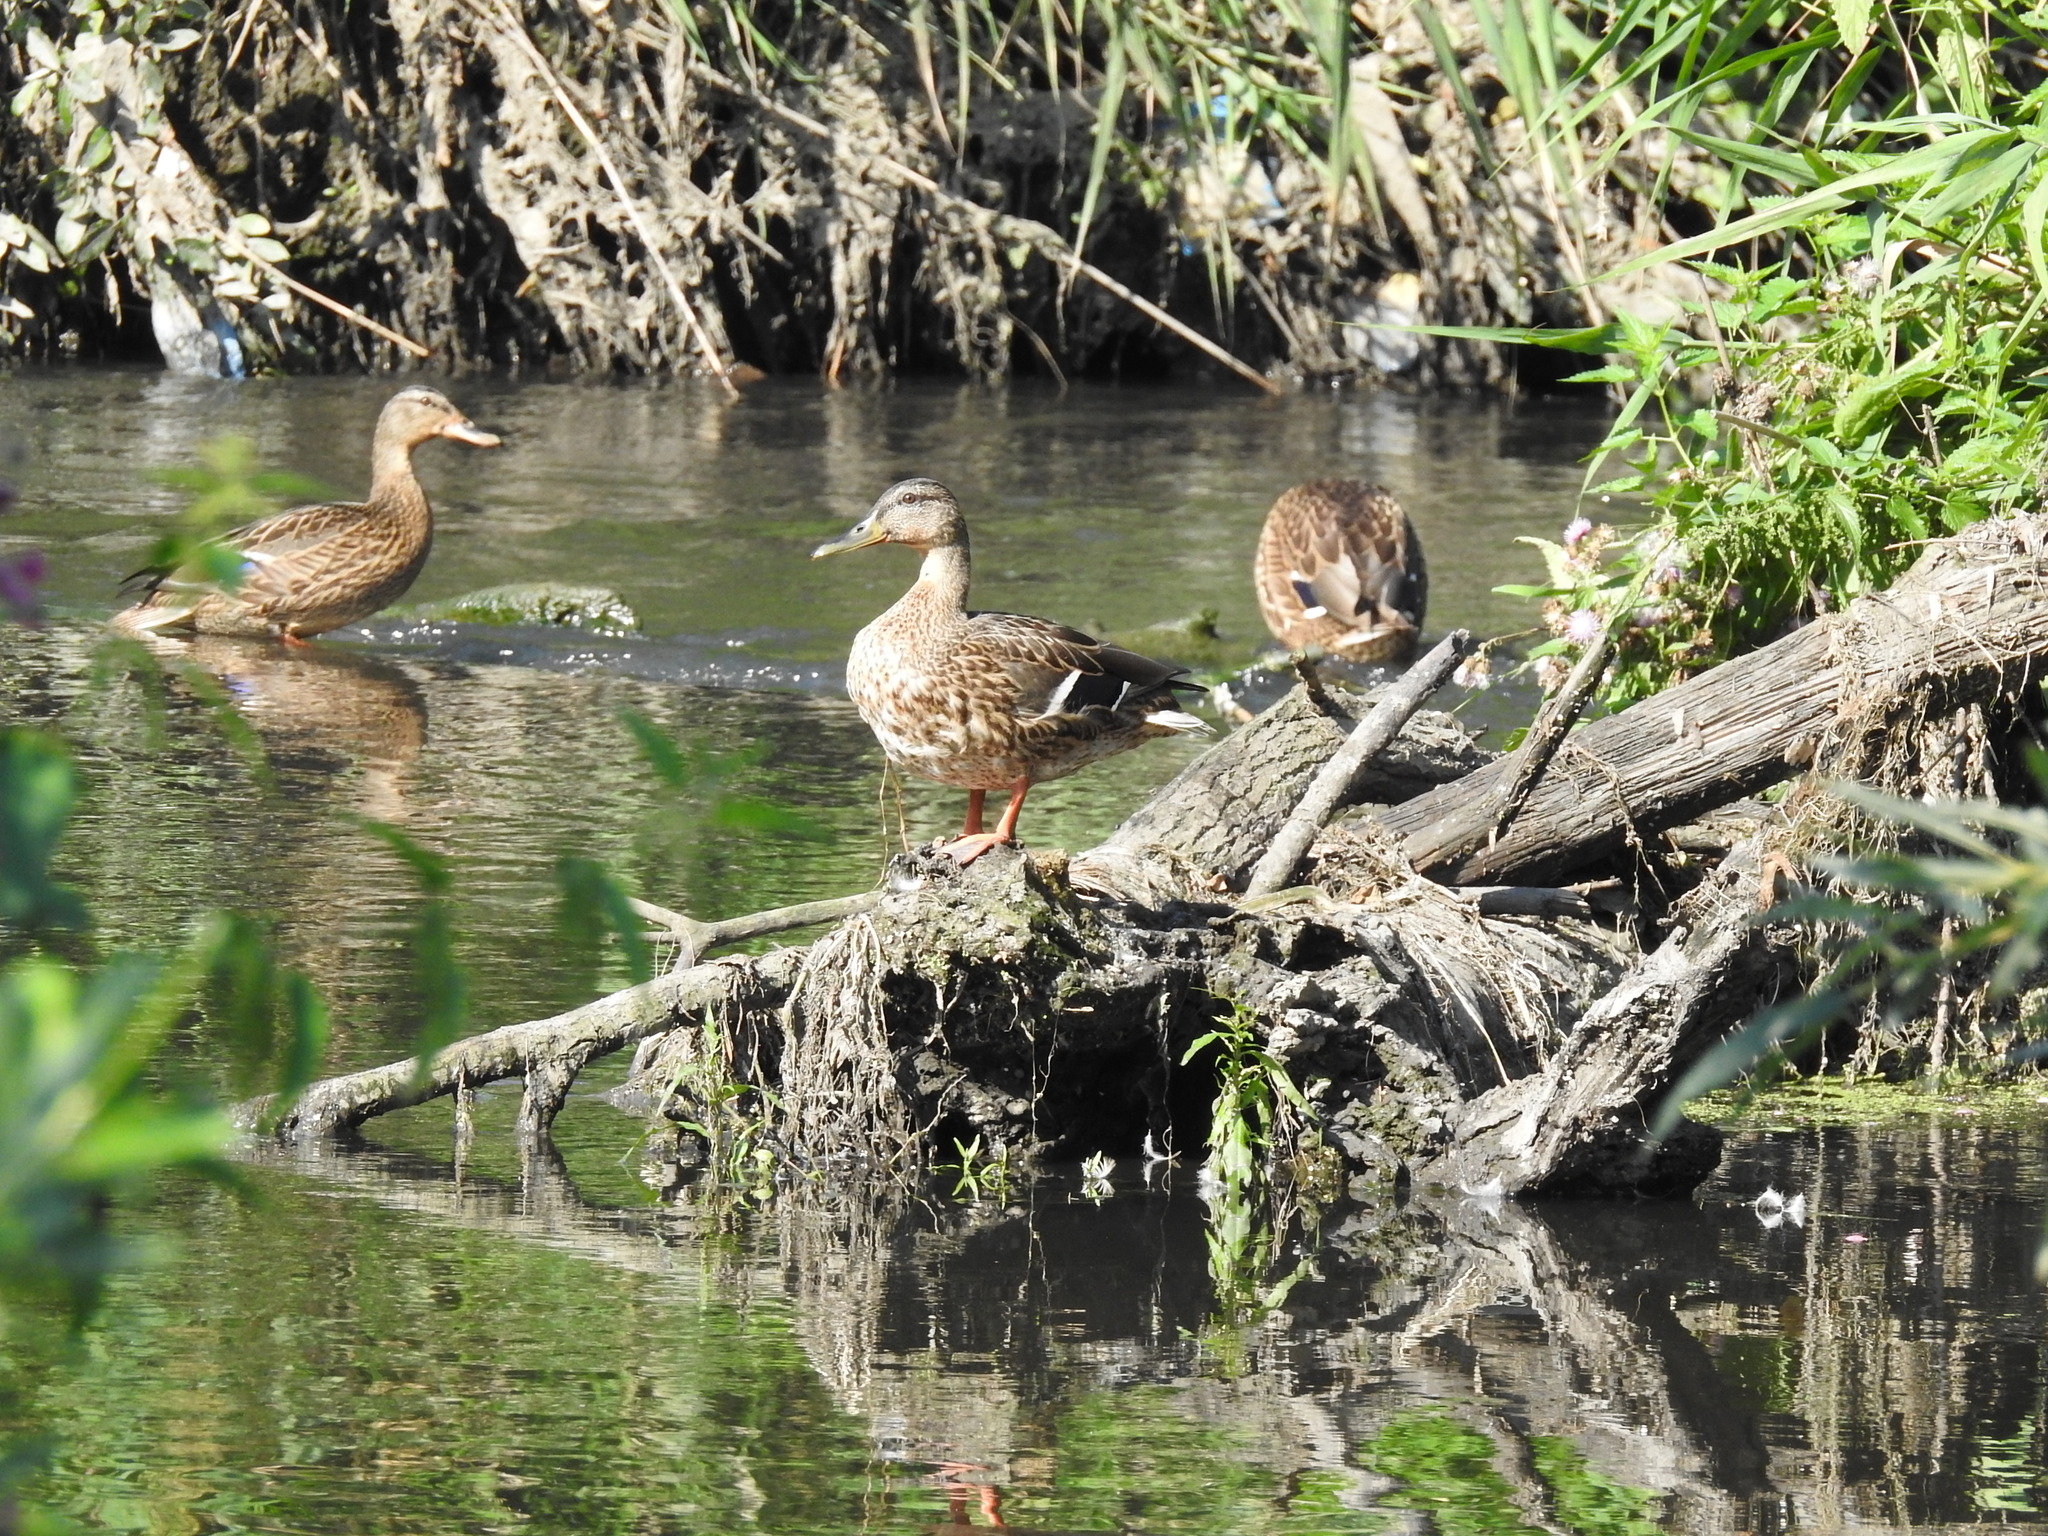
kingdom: Animalia
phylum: Chordata
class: Aves
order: Anseriformes
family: Anatidae
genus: Anas
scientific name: Anas platyrhynchos
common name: Mallard
